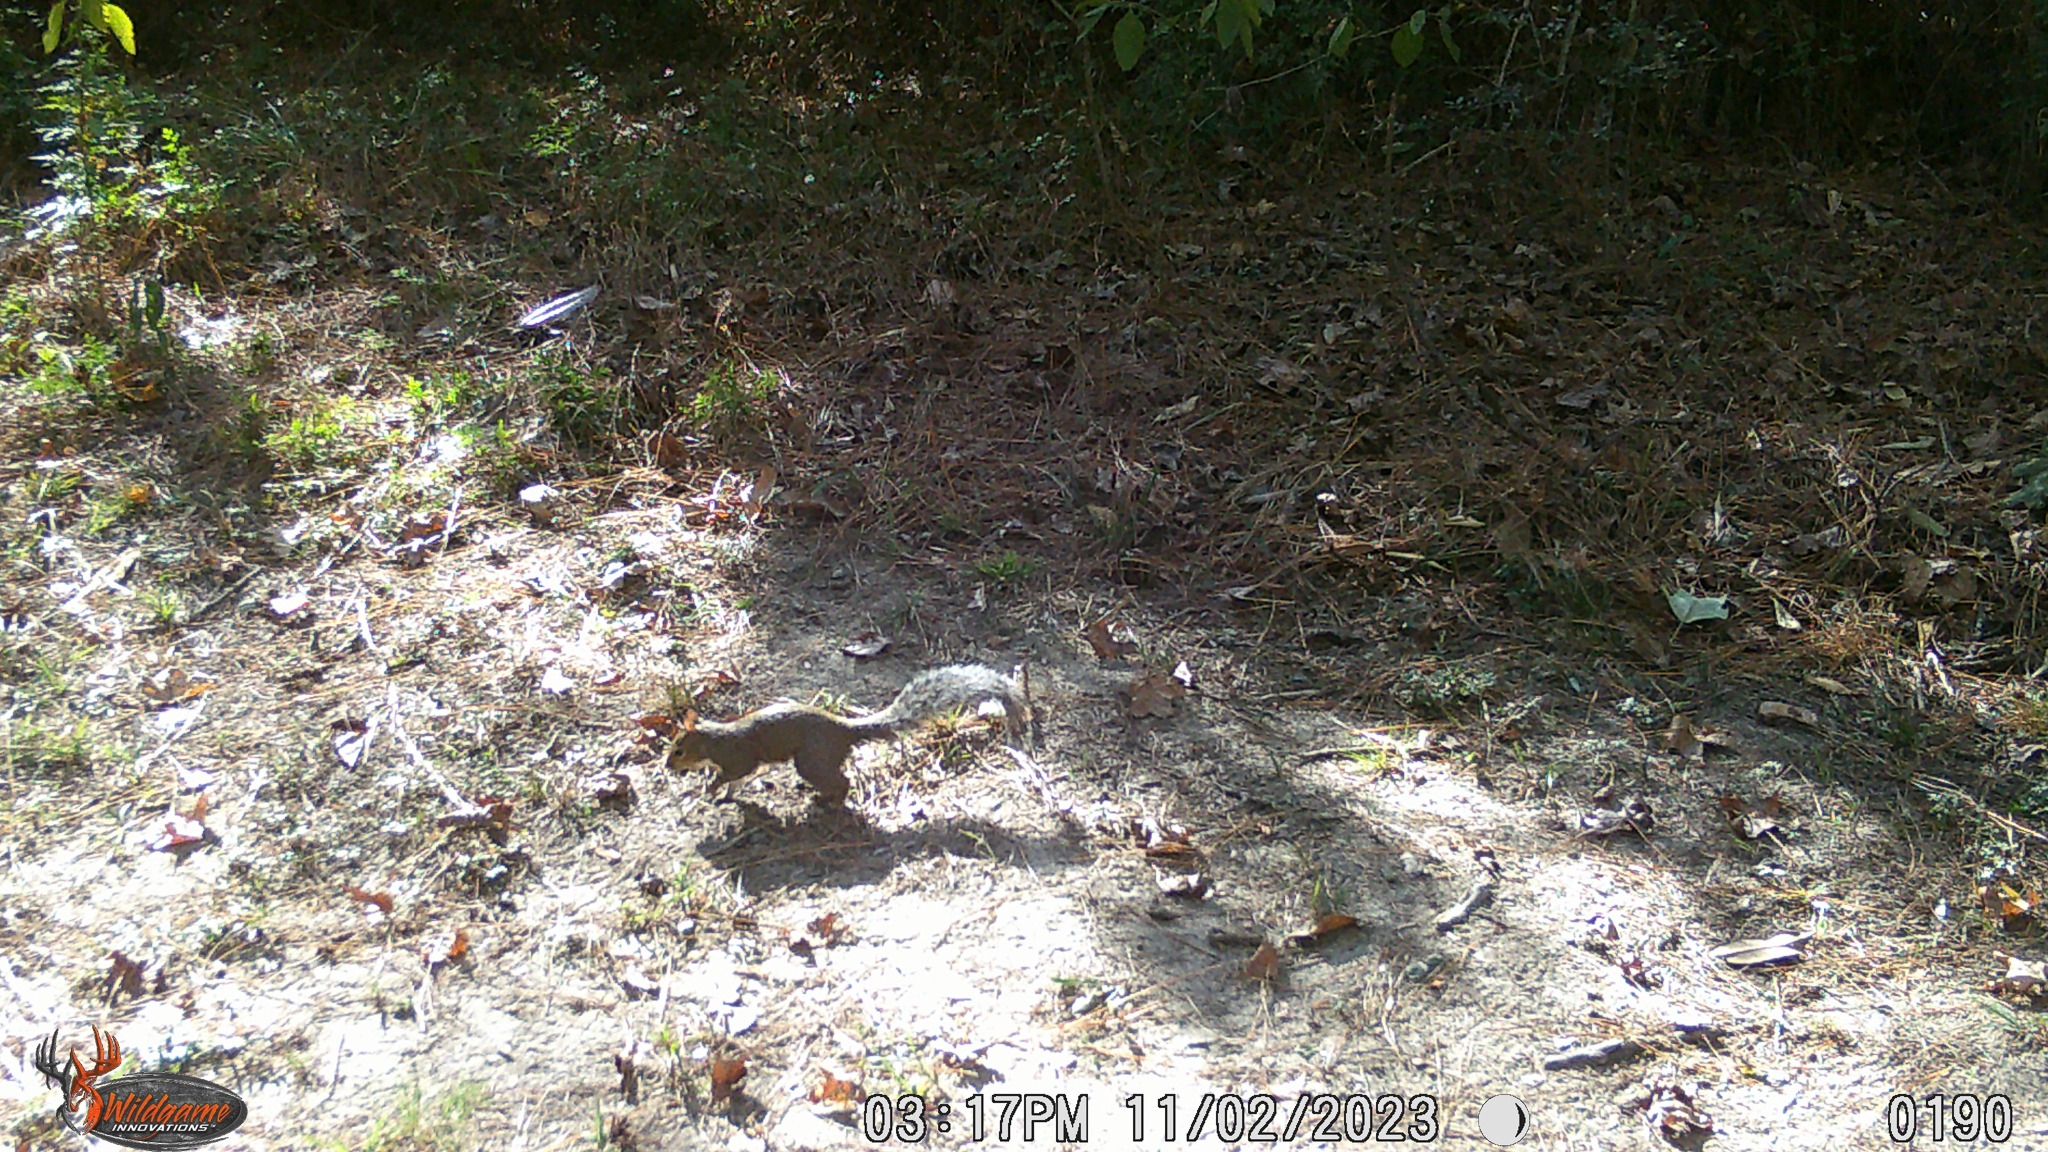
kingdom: Animalia
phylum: Chordata
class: Mammalia
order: Rodentia
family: Sciuridae
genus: Sciurus
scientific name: Sciurus carolinensis
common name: Eastern gray squirrel
